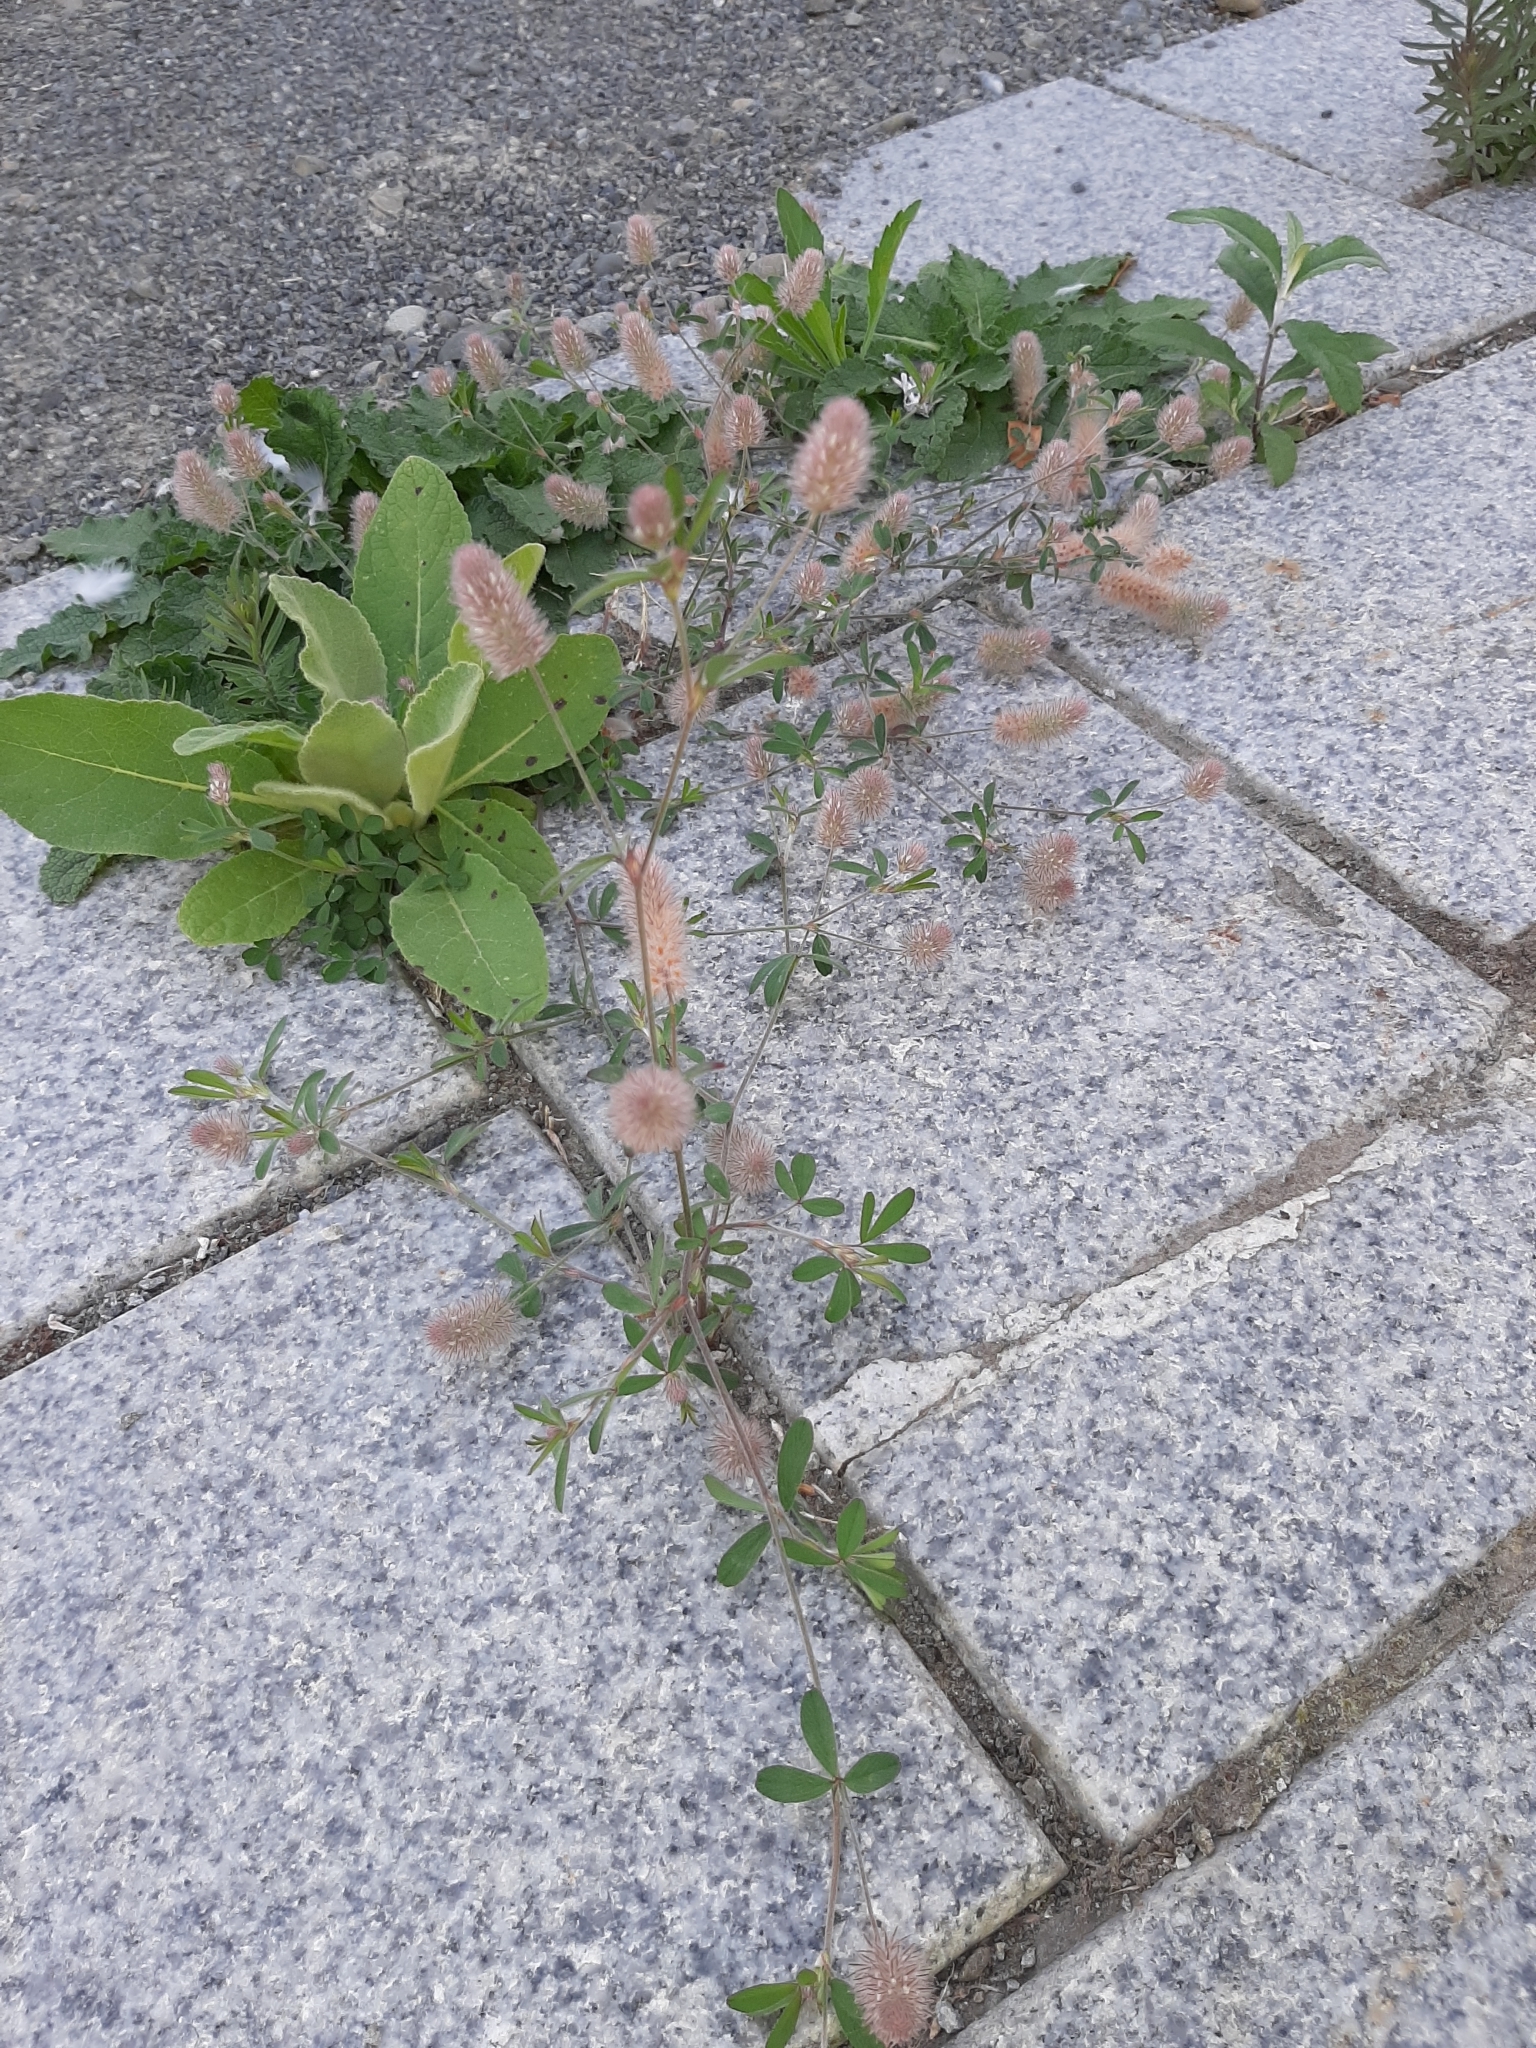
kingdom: Plantae
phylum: Tracheophyta
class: Magnoliopsida
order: Fabales
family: Fabaceae
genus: Trifolium
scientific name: Trifolium arvense
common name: Hare's-foot clover
